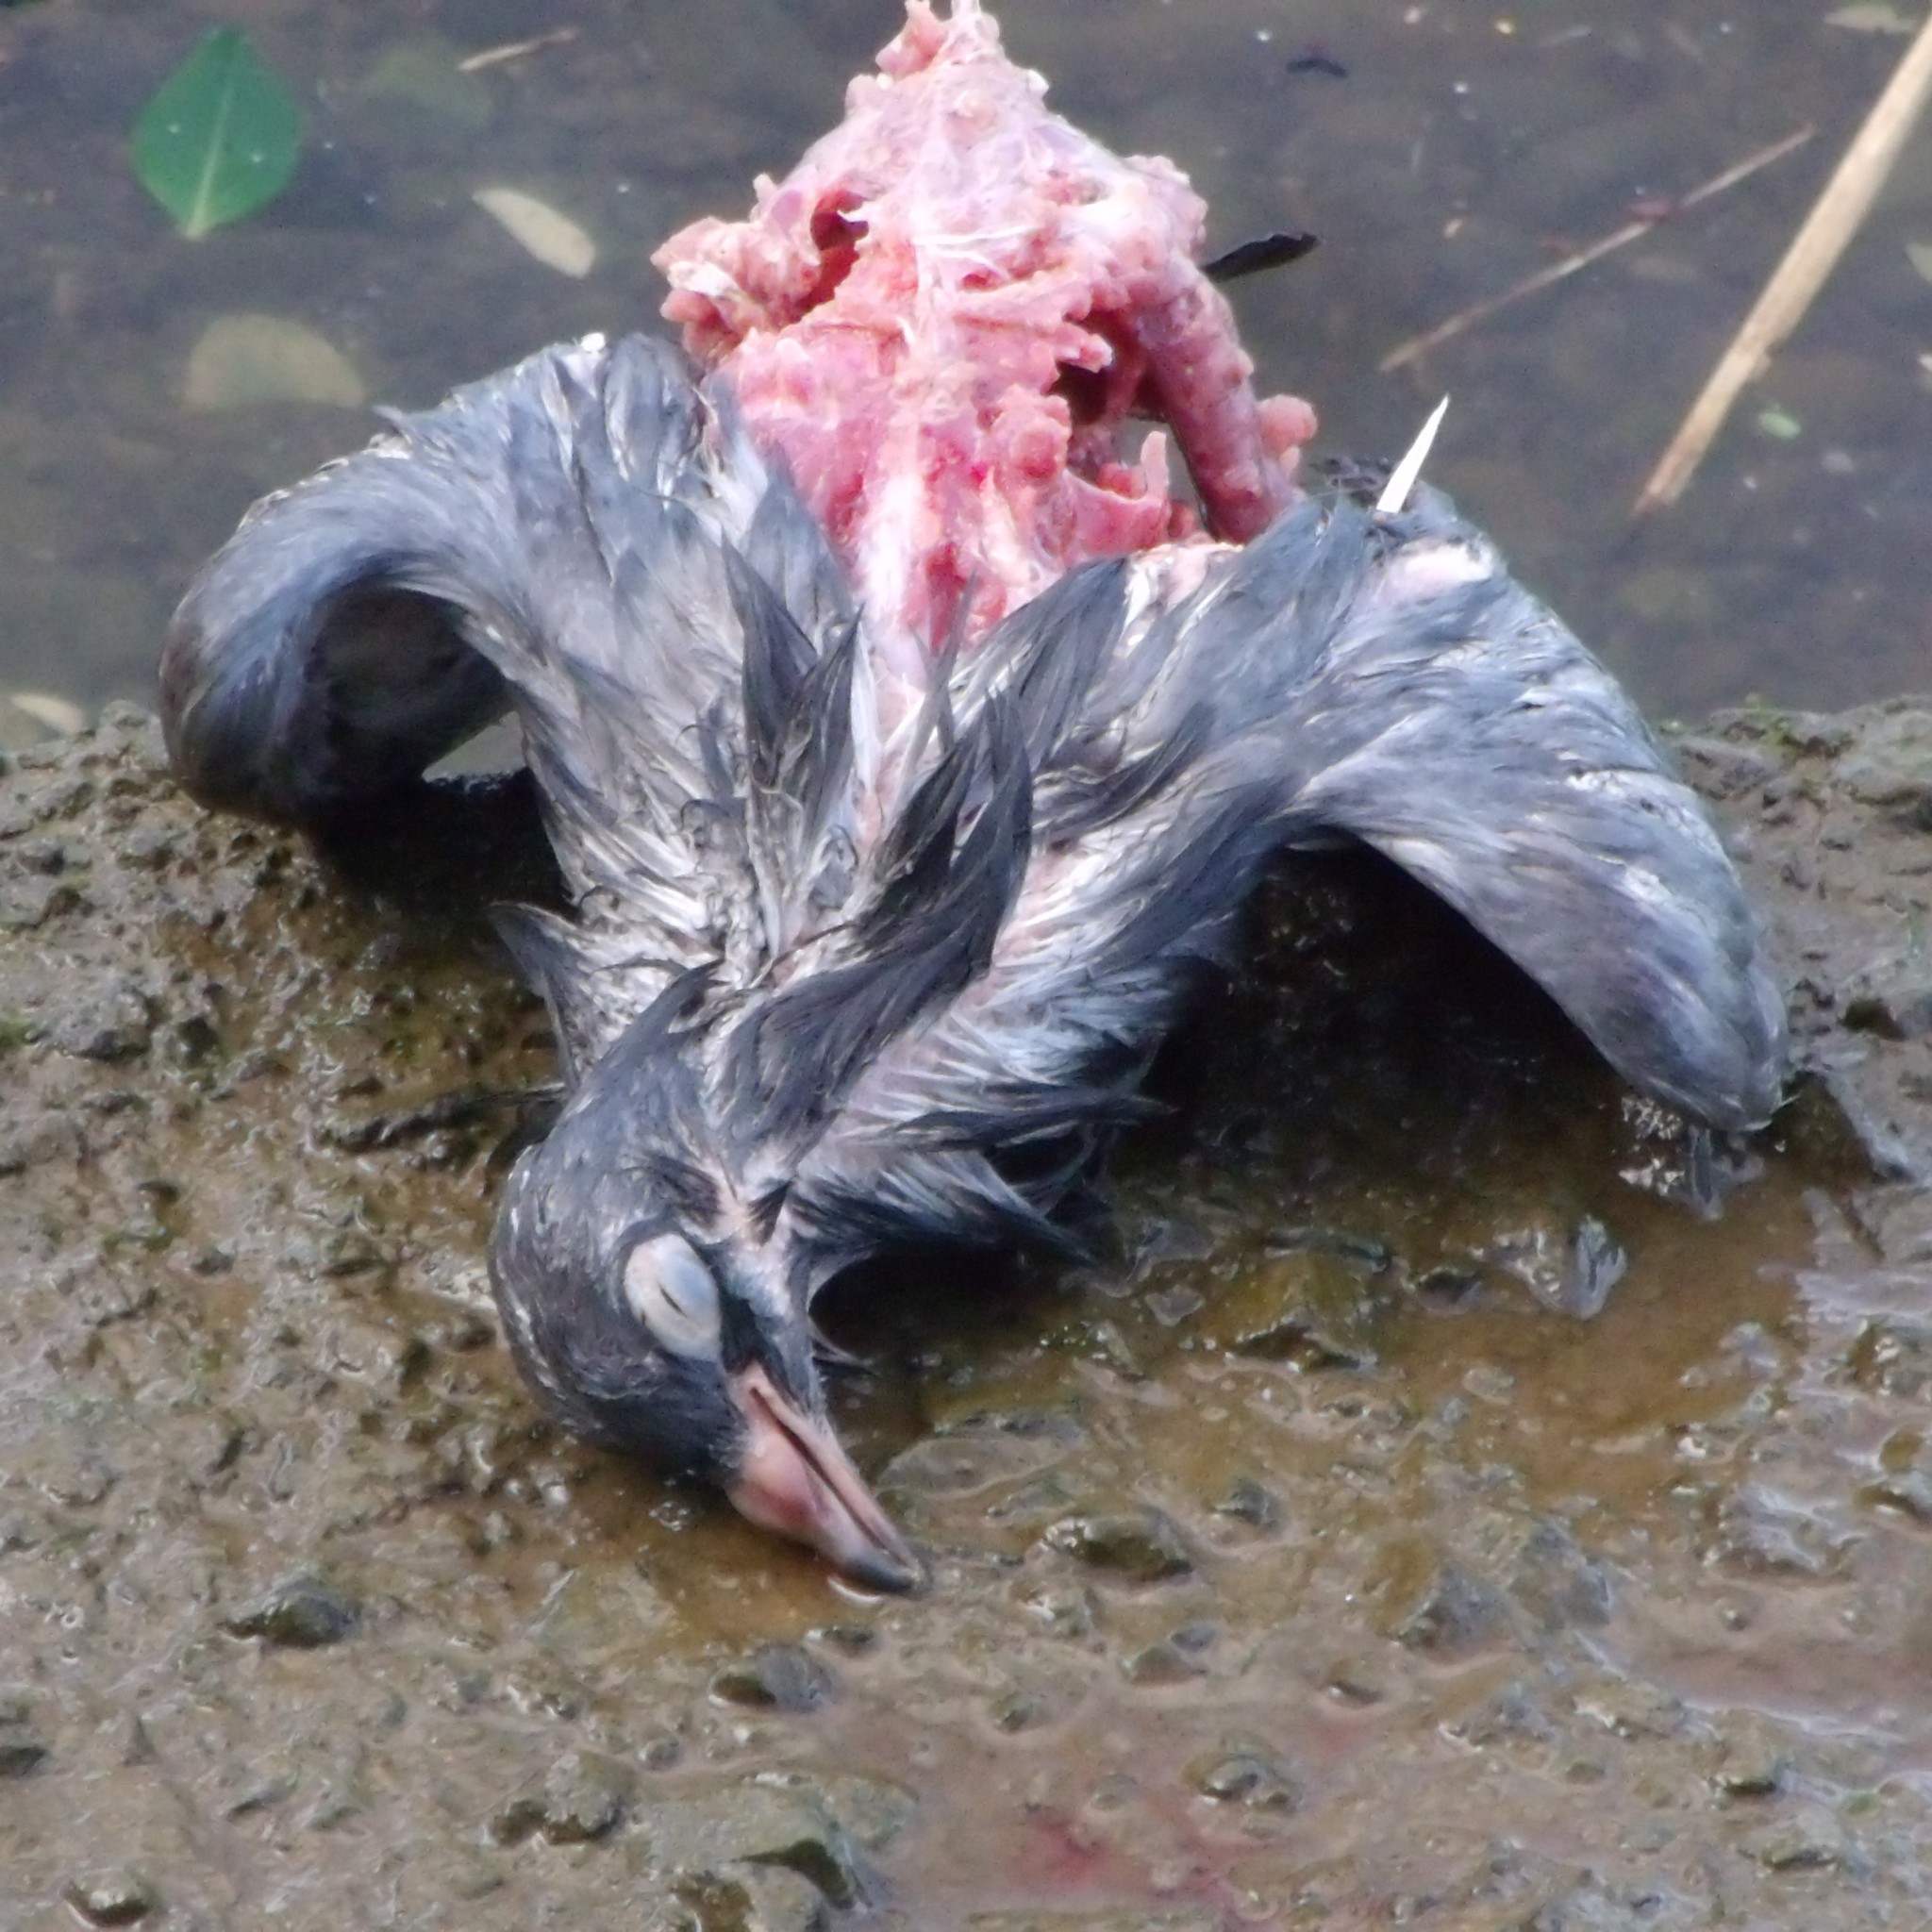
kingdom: Animalia
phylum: Chordata
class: Aves
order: Columbiformes
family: Columbidae
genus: Columba
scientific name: Columba livia
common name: Rock pigeon
